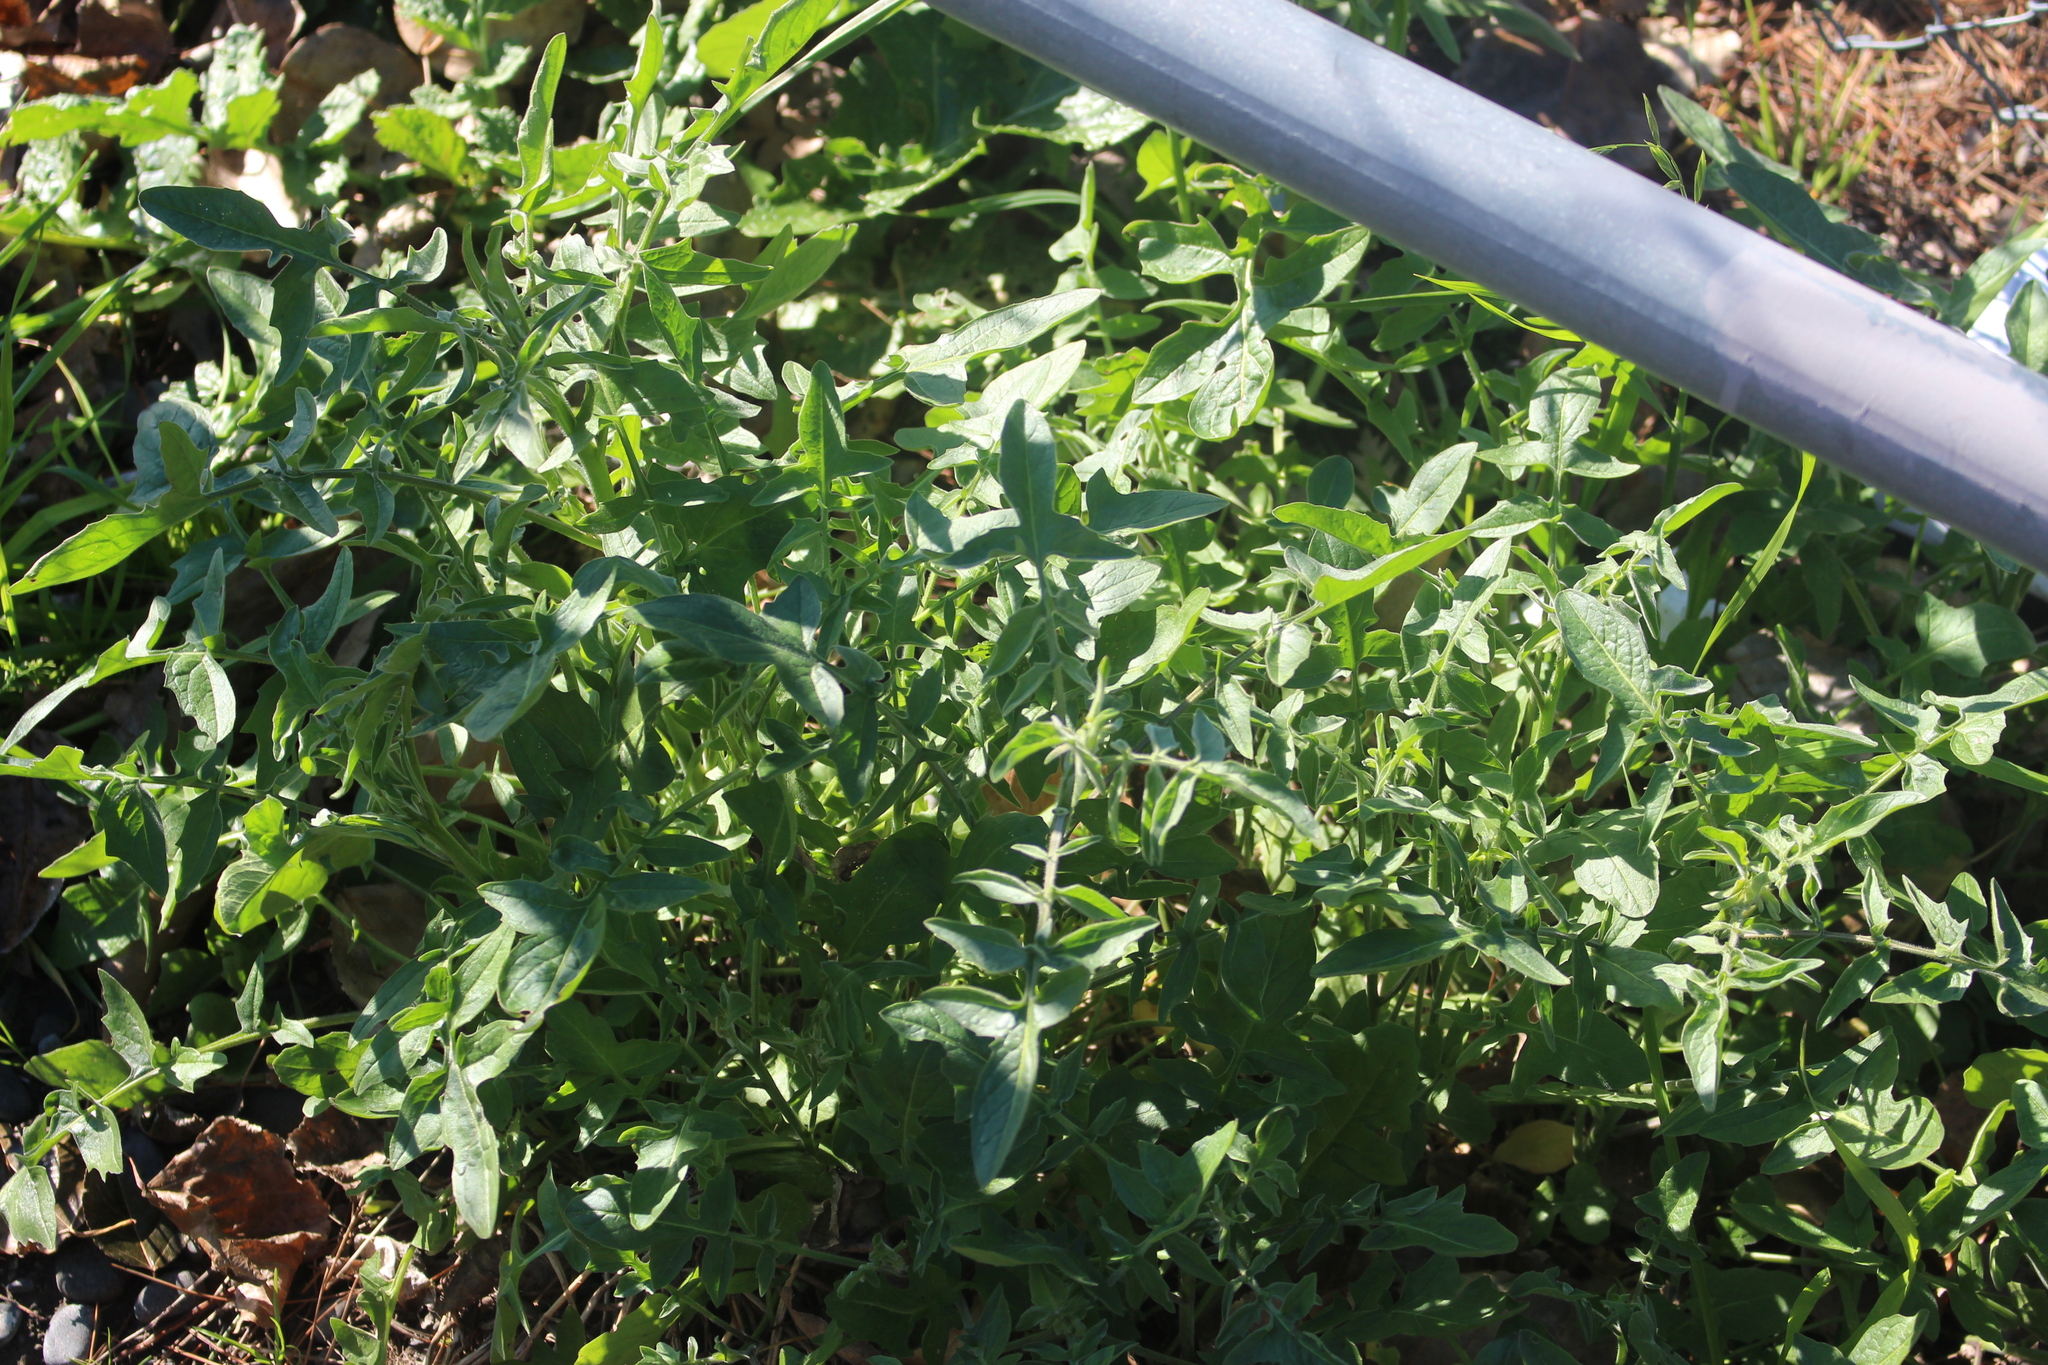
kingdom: Plantae
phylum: Tracheophyta
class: Magnoliopsida
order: Brassicales
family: Brassicaceae
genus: Sisymbrium
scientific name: Sisymbrium orientale
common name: Eastern rocket
